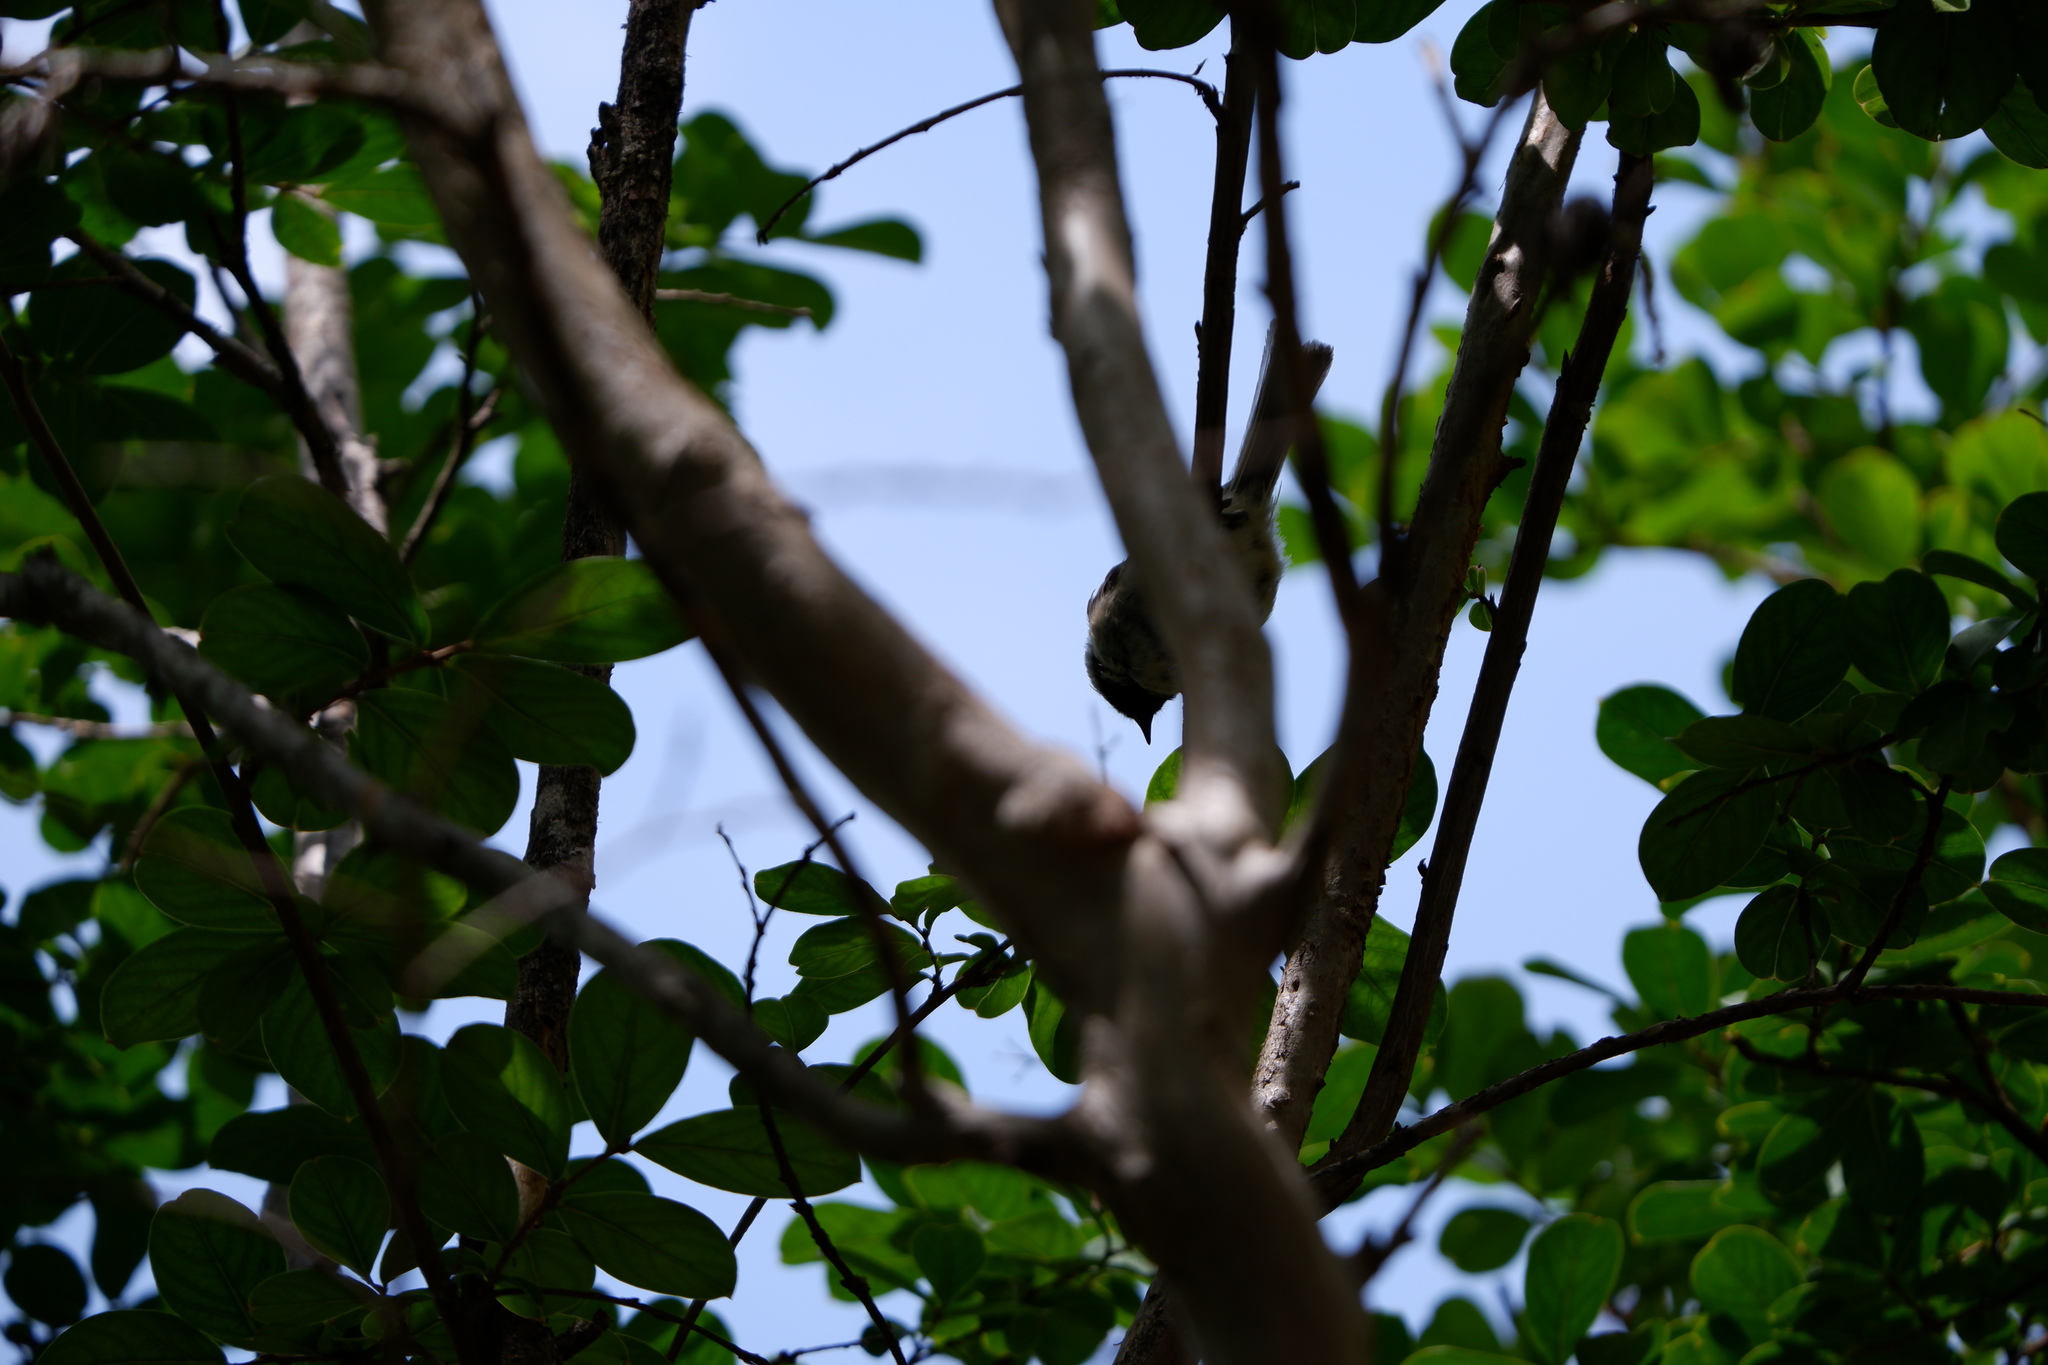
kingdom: Animalia
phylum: Chordata
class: Aves
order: Passeriformes
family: Paridae
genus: Poecile
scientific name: Poecile carolinensis
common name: Carolina chickadee
